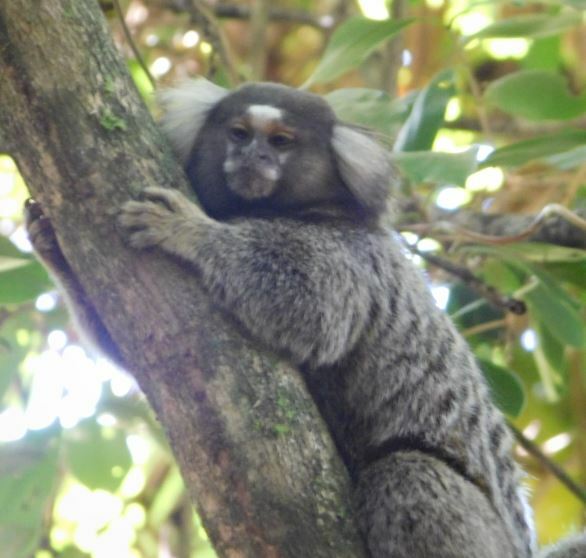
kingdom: Animalia
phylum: Chordata
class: Mammalia
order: Primates
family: Callitrichidae
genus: Callithrix
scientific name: Callithrix jacchus
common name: Common marmoset
